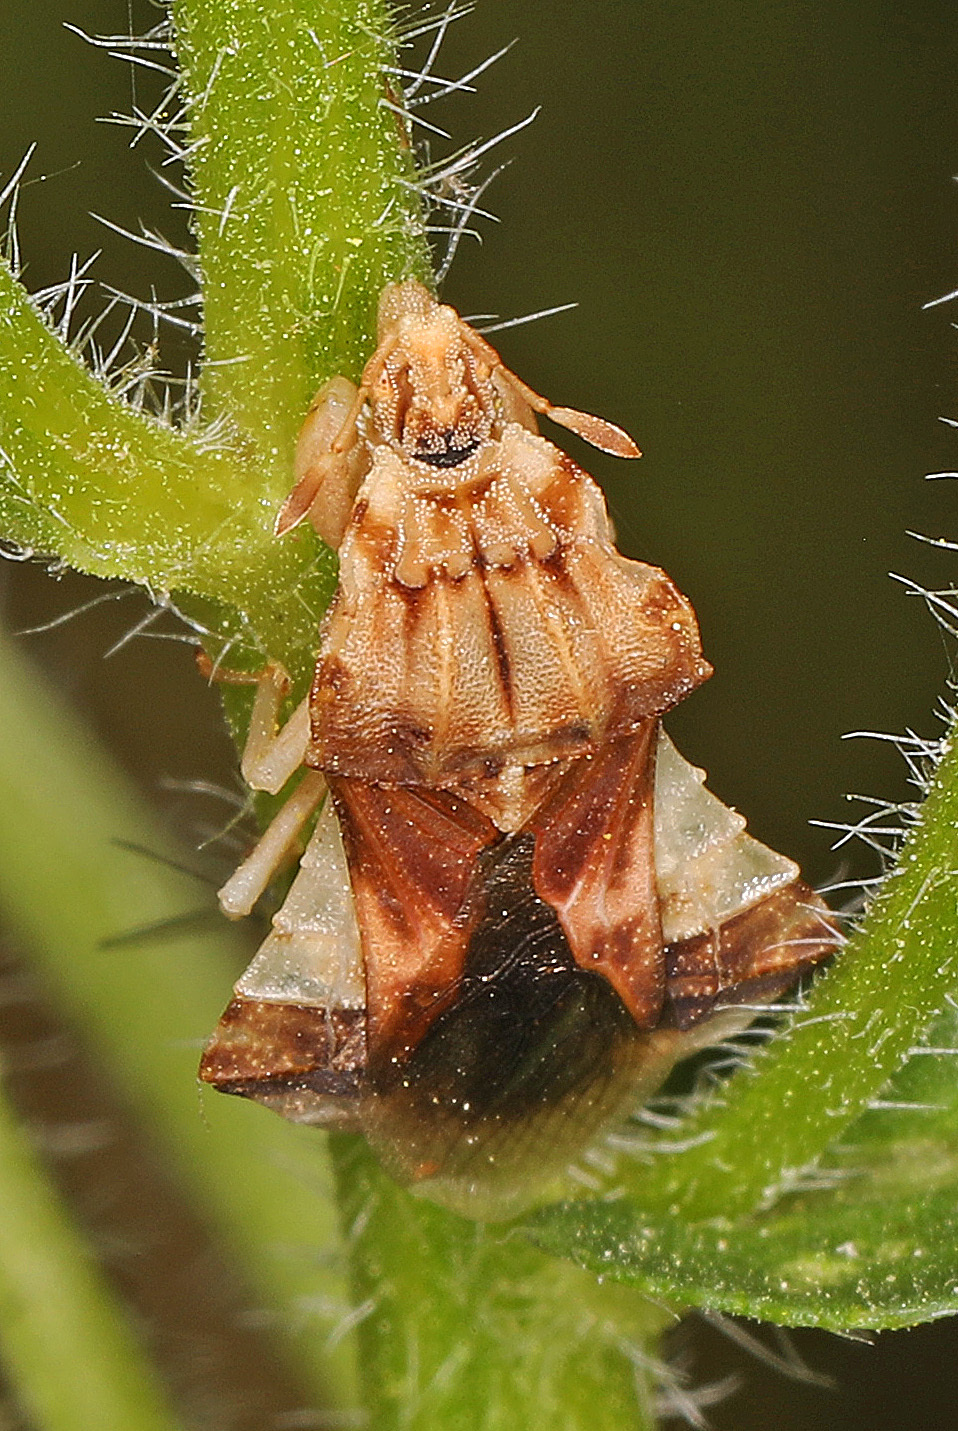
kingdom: Animalia
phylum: Arthropoda
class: Insecta
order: Hemiptera
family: Reduviidae
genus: Phymata
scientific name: Phymata fasciata
